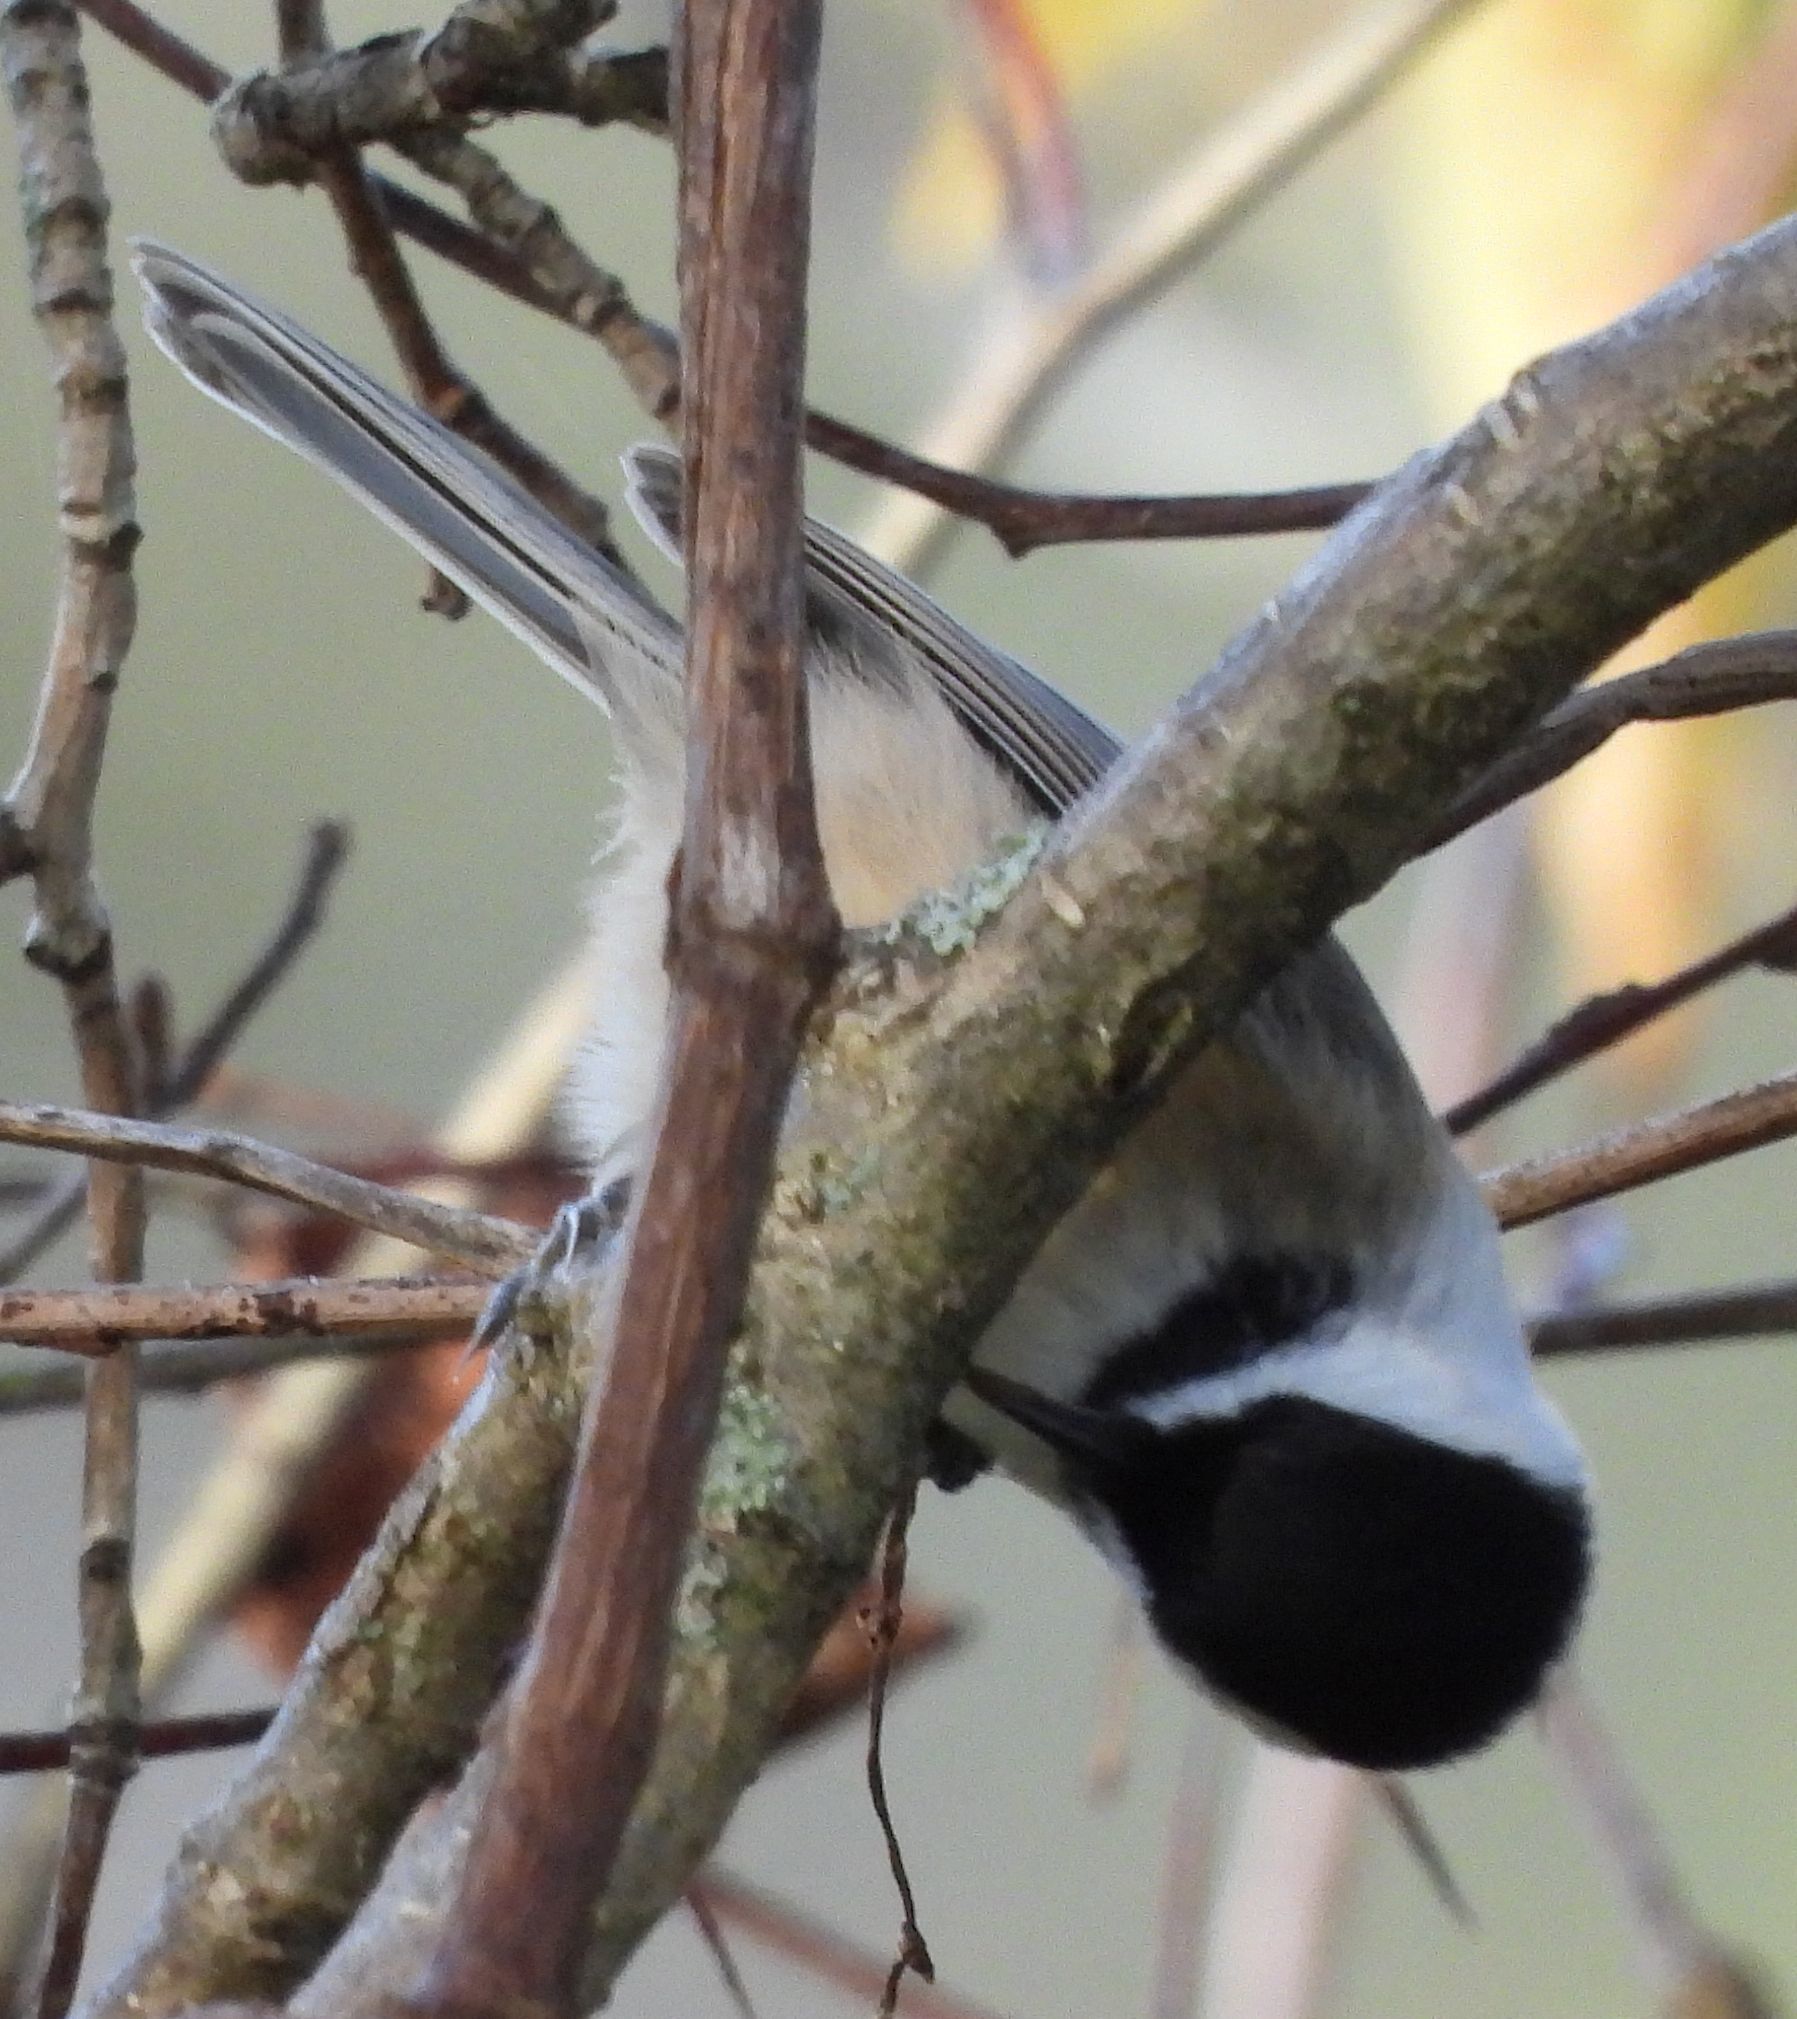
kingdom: Animalia
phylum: Chordata
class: Aves
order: Passeriformes
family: Paridae
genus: Poecile
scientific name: Poecile atricapillus
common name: Black-capped chickadee
